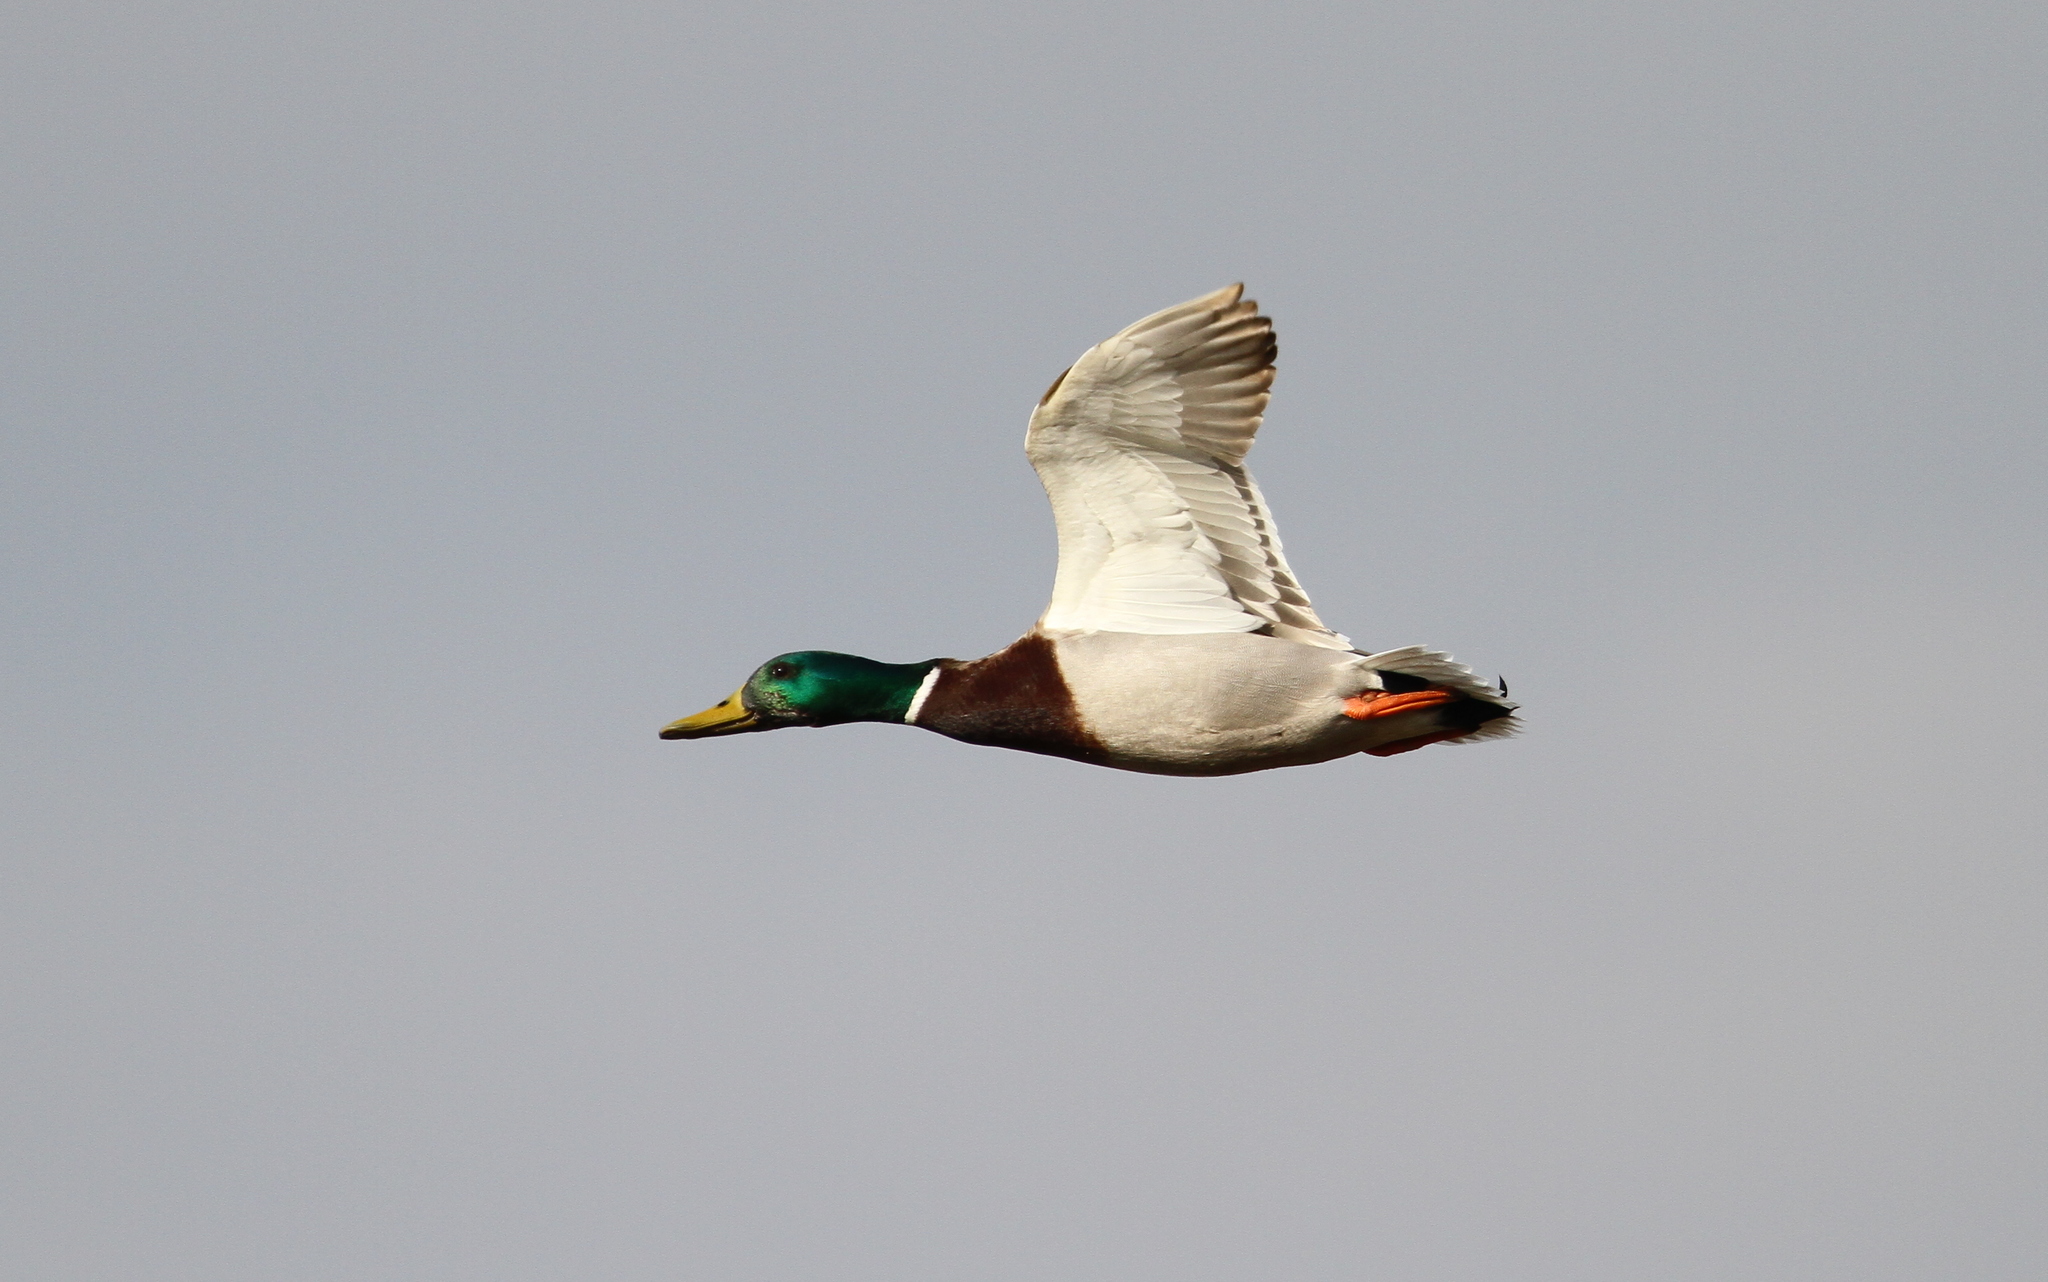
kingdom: Animalia
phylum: Chordata
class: Aves
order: Anseriformes
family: Anatidae
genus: Anas
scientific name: Anas platyrhynchos
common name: Mallard
